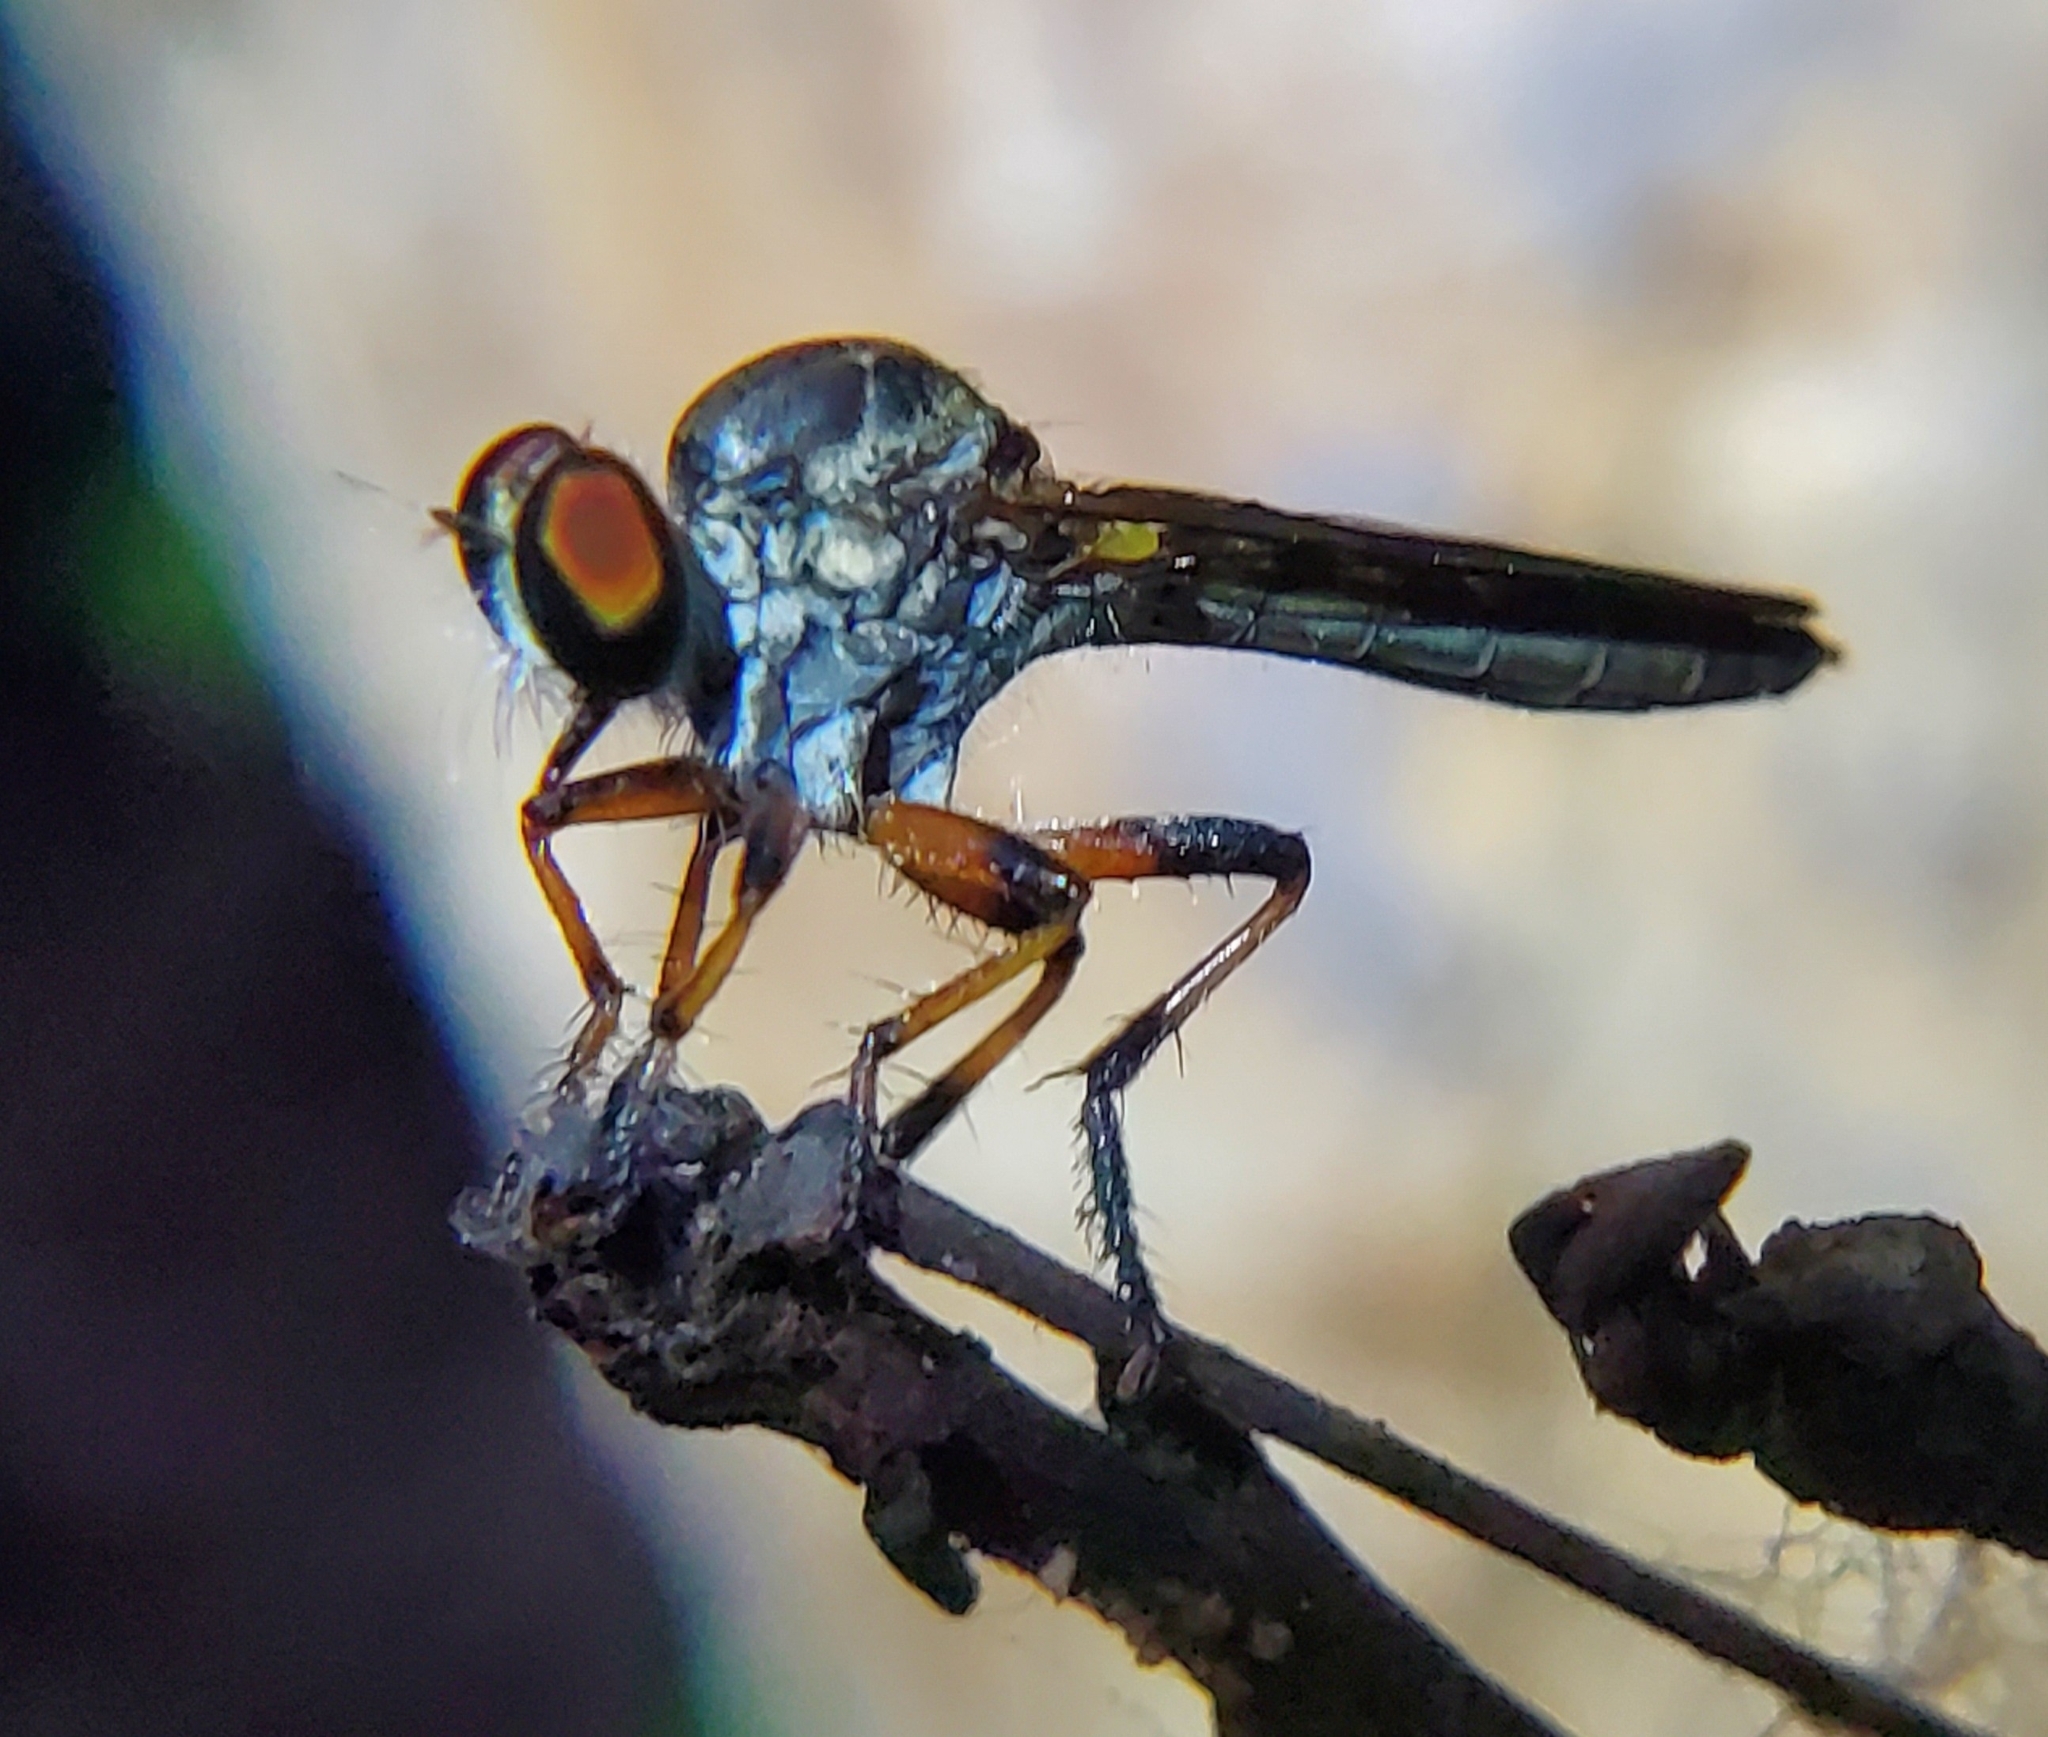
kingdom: Animalia
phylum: Arthropoda
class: Insecta
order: Diptera
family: Asilidae
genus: Ommatius
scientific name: Ommatius floridensis
